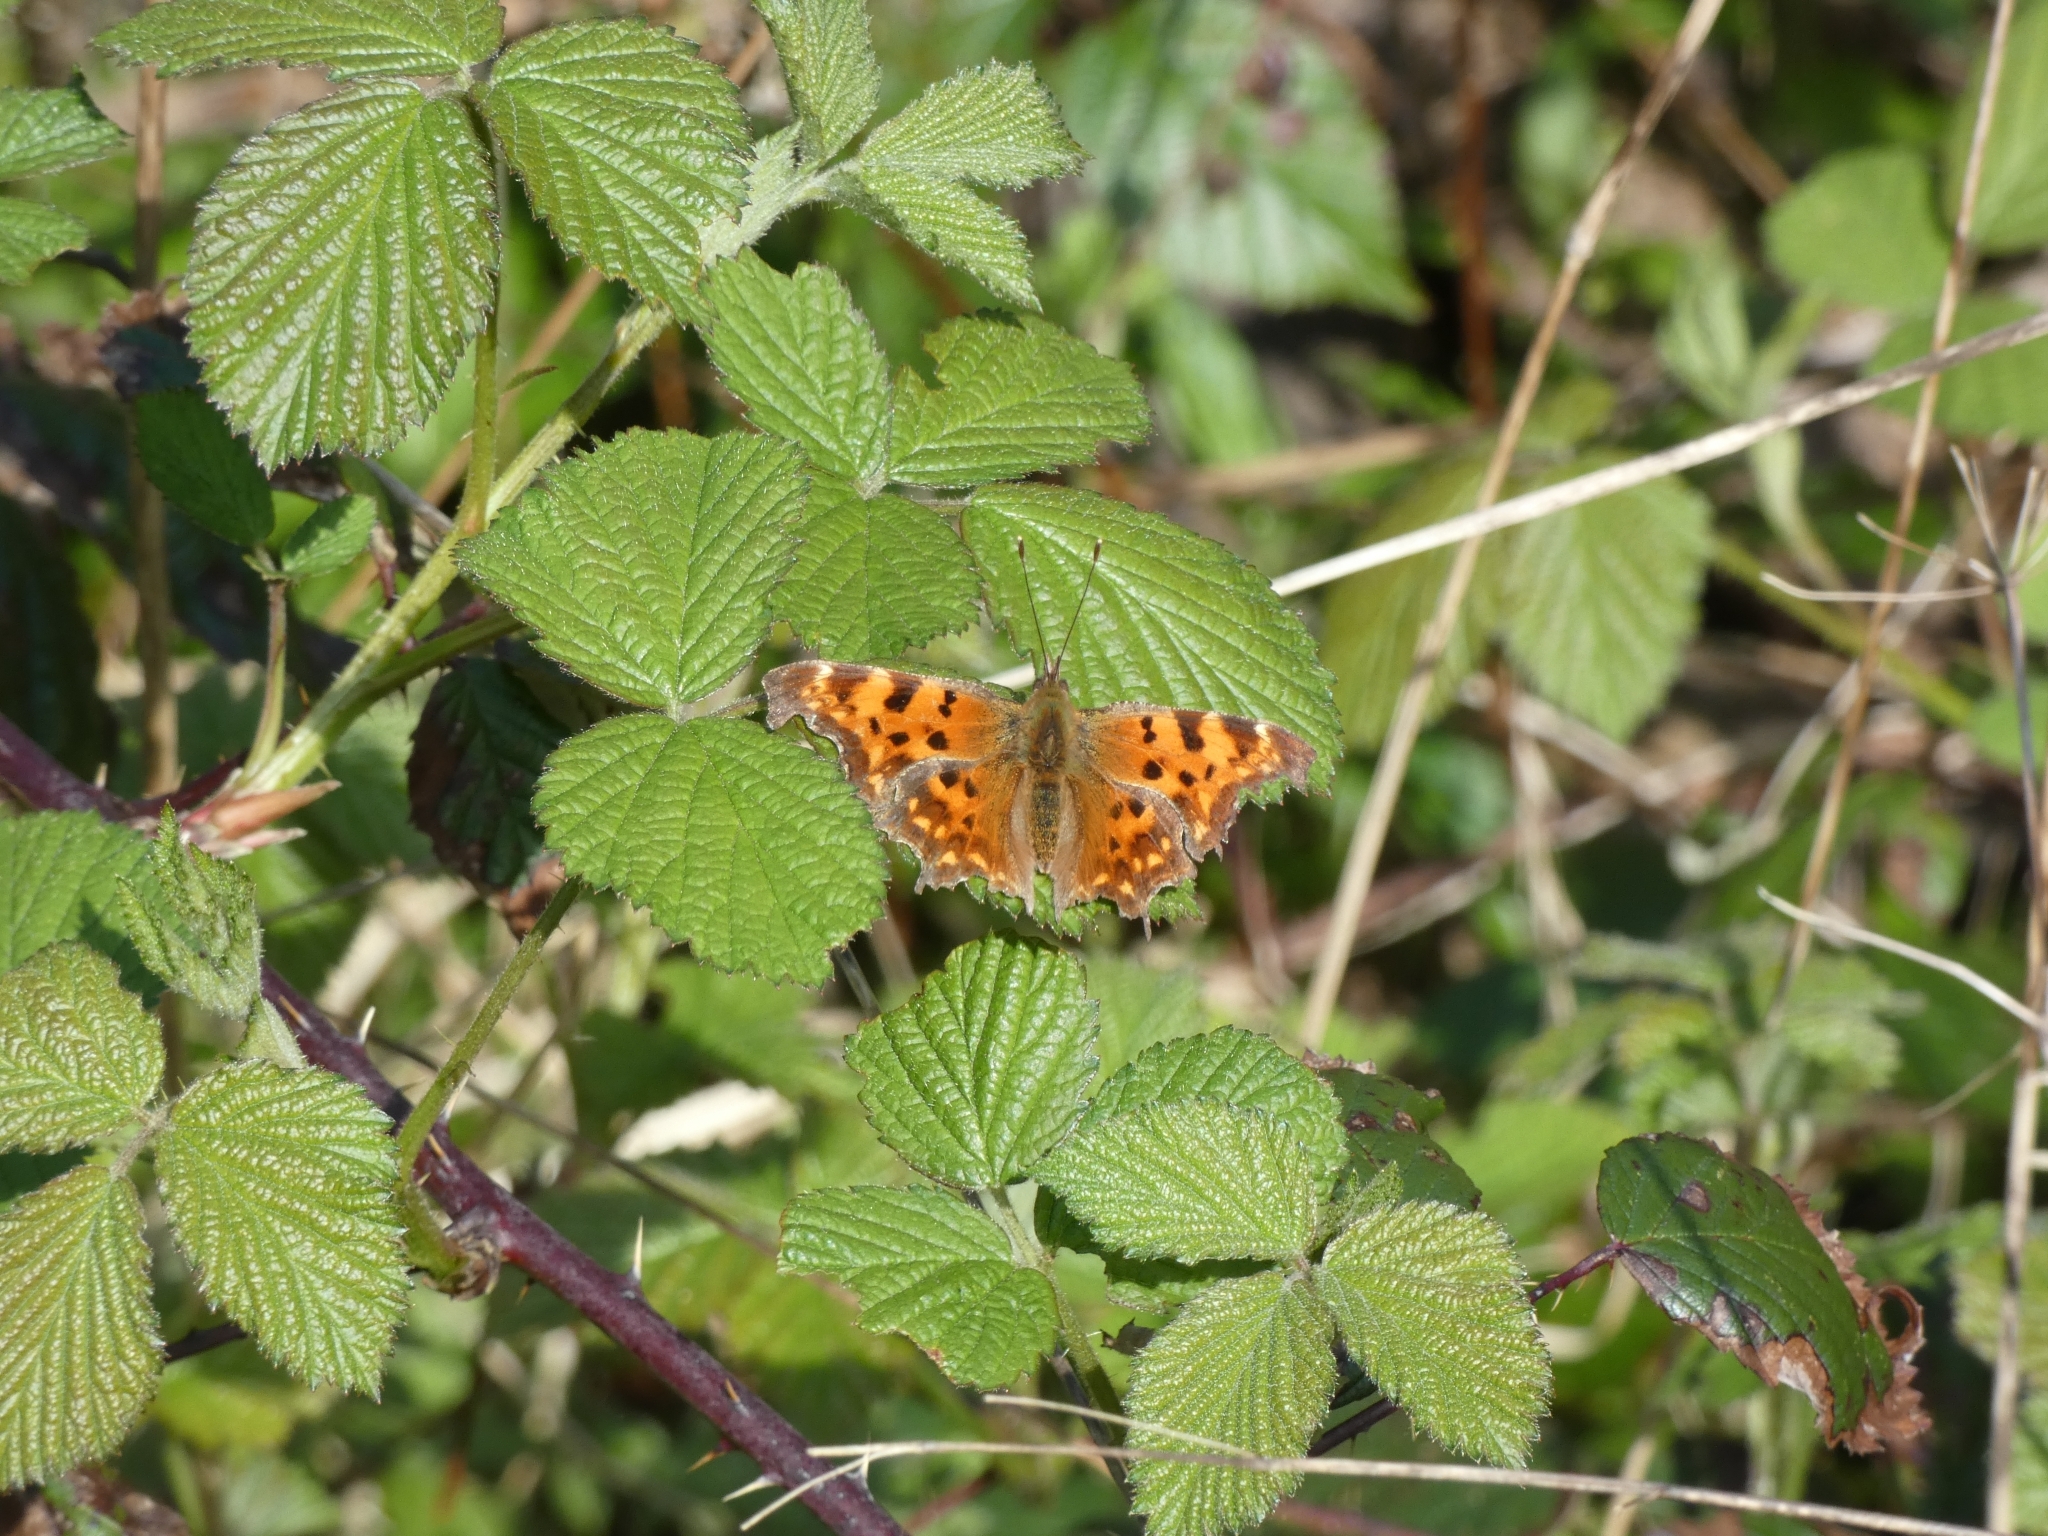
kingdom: Animalia
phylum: Arthropoda
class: Insecta
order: Lepidoptera
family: Nymphalidae
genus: Polygonia
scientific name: Polygonia c-album
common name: Comma
